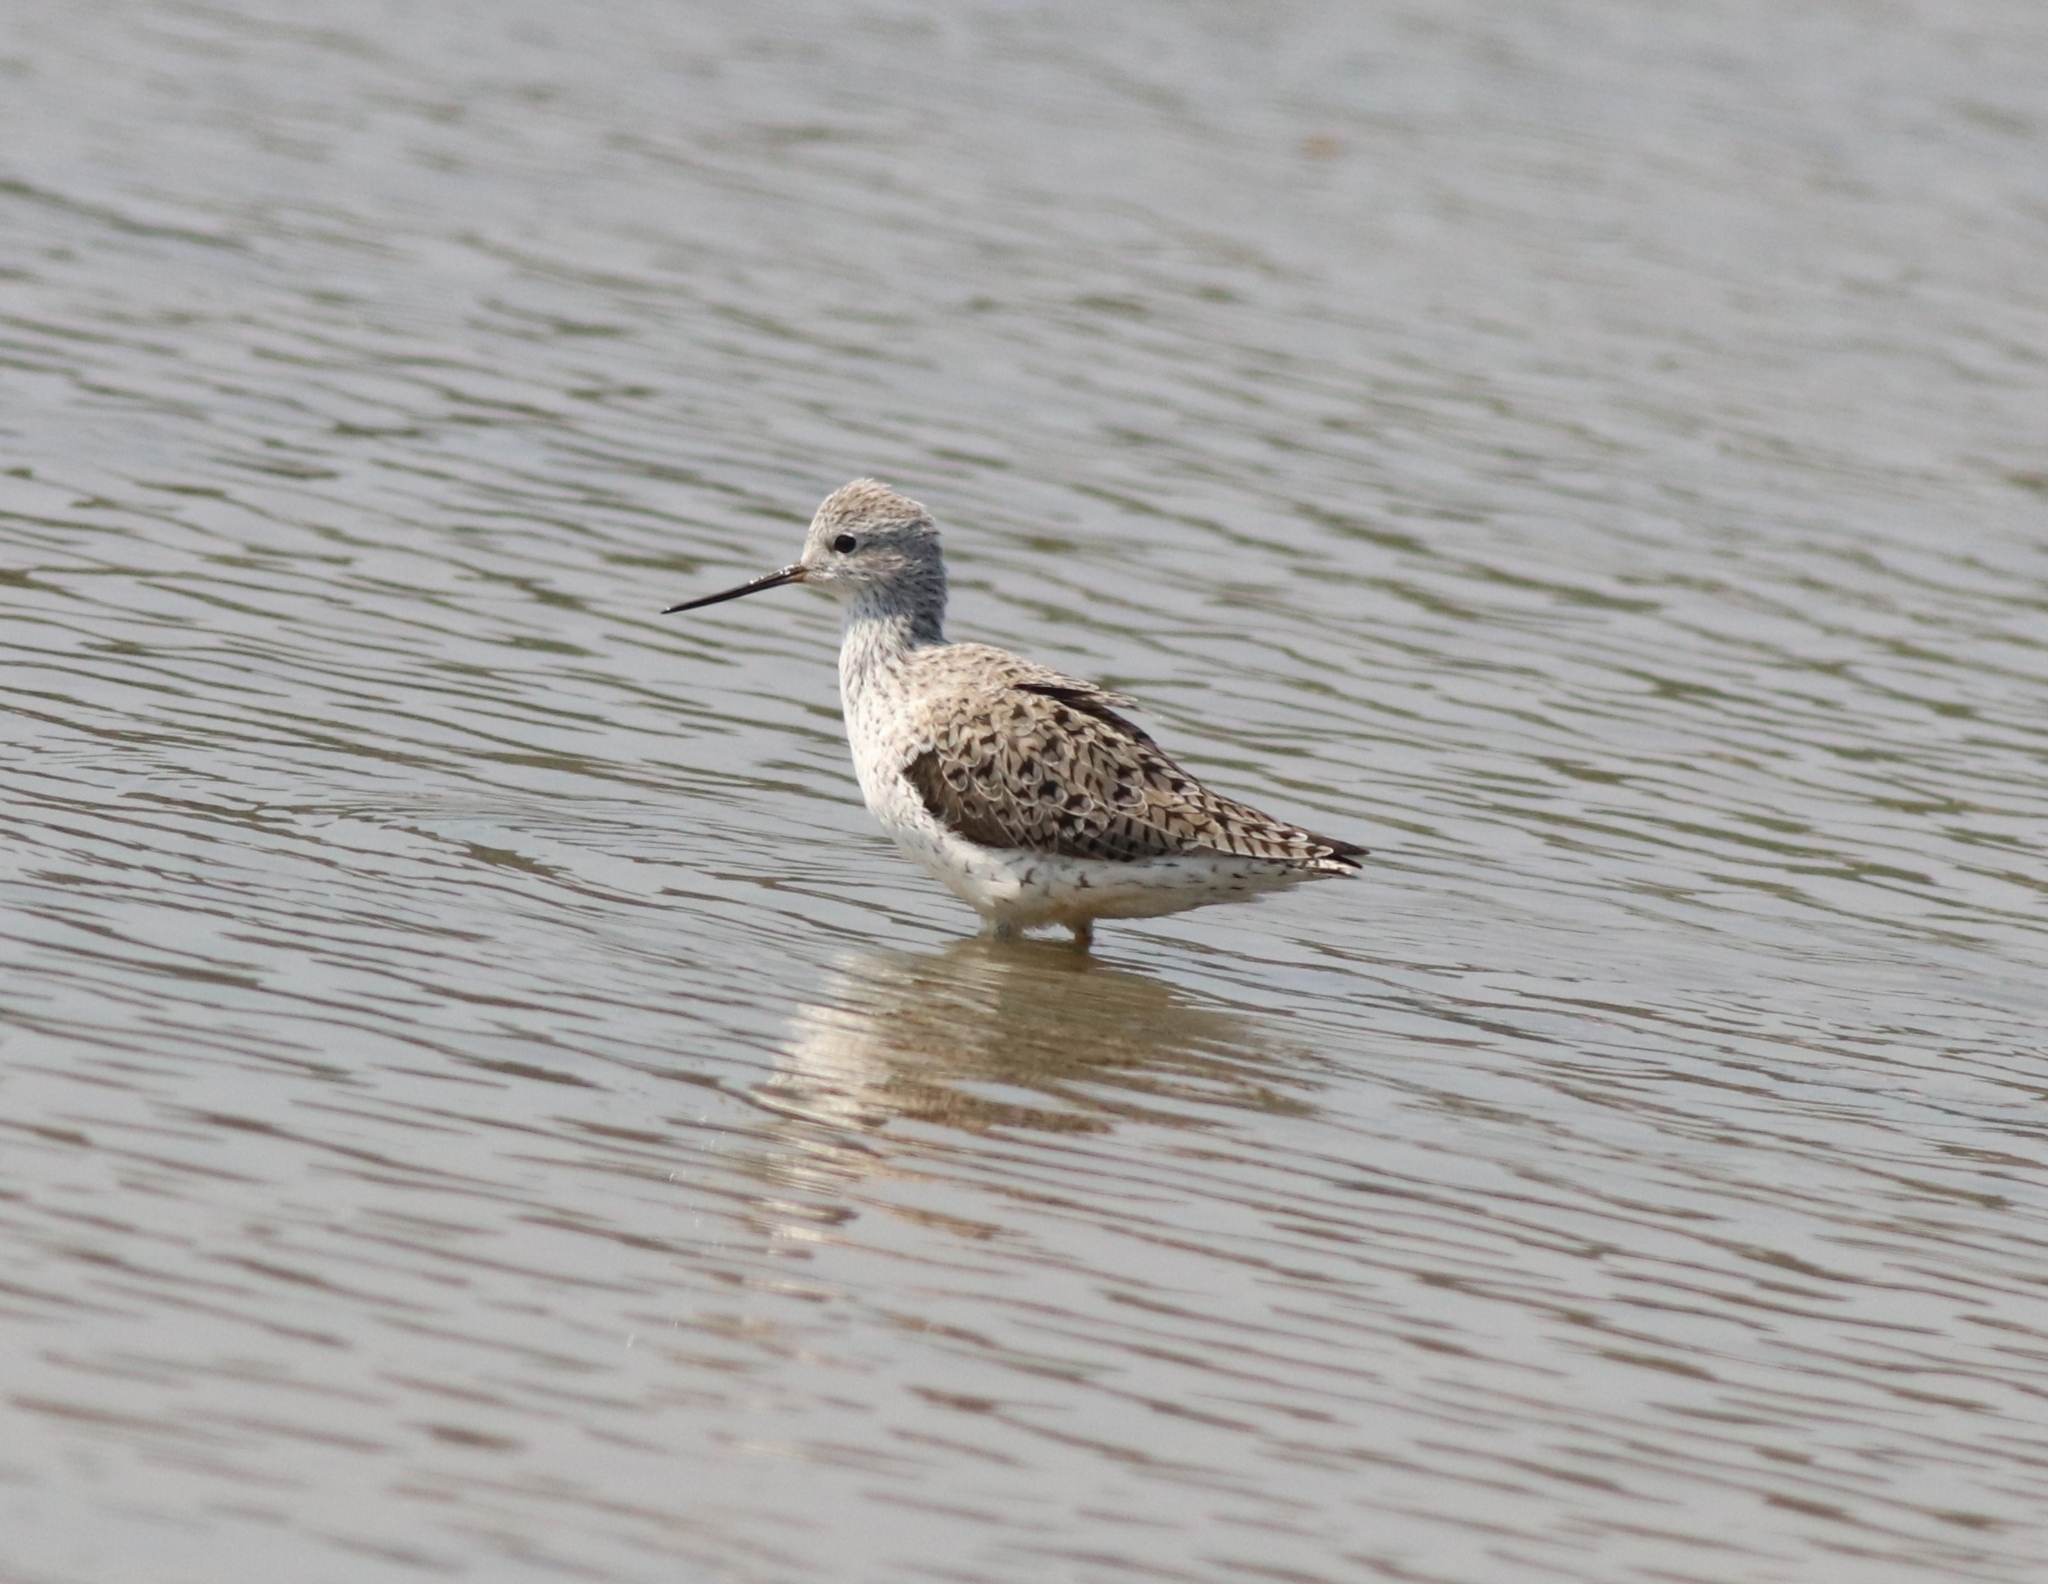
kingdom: Animalia
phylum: Chordata
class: Aves
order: Charadriiformes
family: Scolopacidae
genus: Tringa
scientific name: Tringa stagnatilis
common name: Marsh sandpiper
